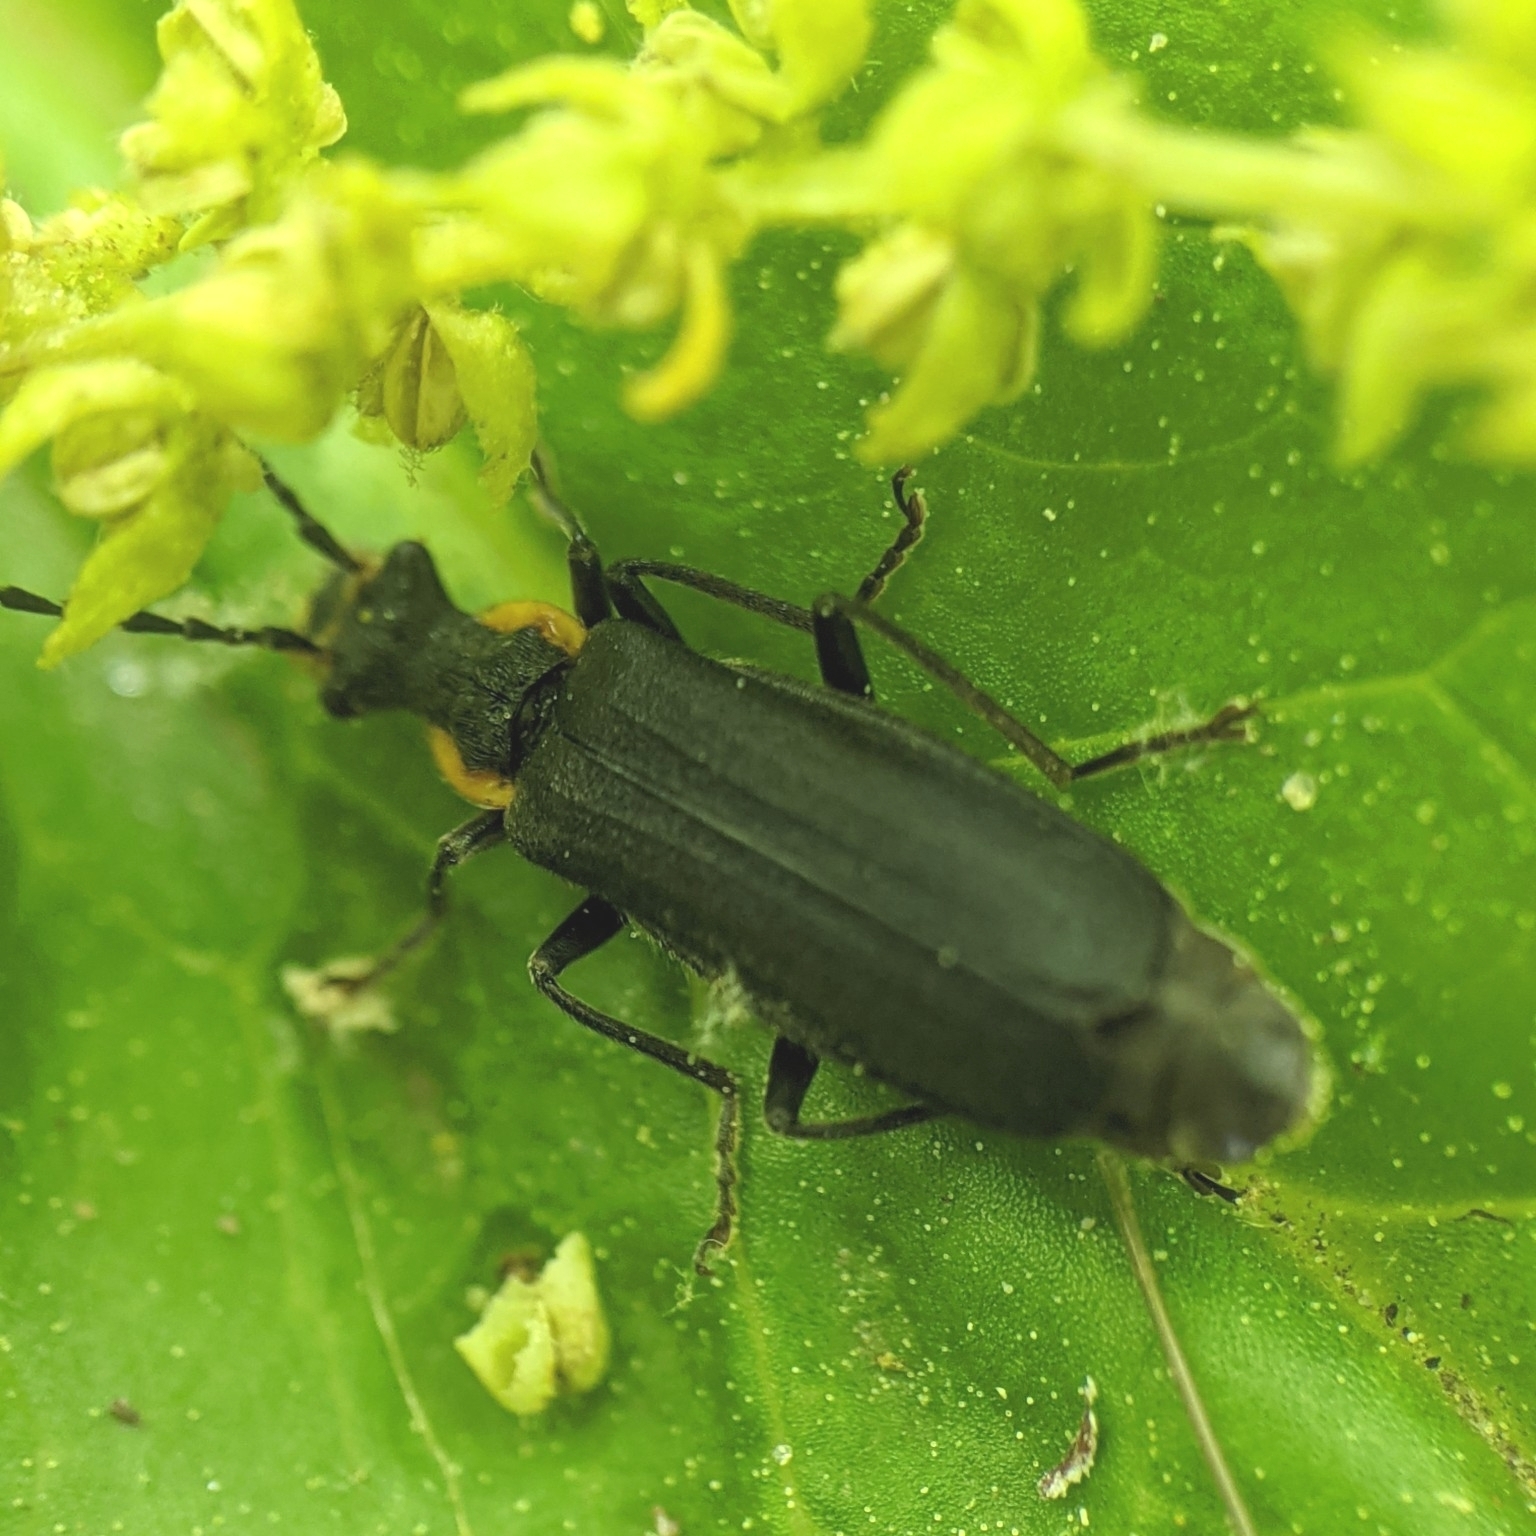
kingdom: Animalia
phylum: Arthropoda
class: Insecta
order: Coleoptera
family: Cantharidae
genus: Podabrus
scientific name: Podabrus rugosulus
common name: Wrinkled soldier beetle
